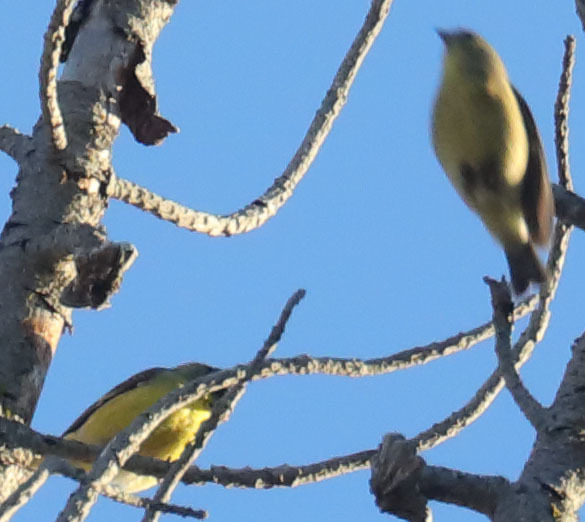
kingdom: Animalia
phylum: Chordata
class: Aves
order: Passeriformes
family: Fringillidae
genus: Spinus
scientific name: Spinus psaltria
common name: Lesser goldfinch
